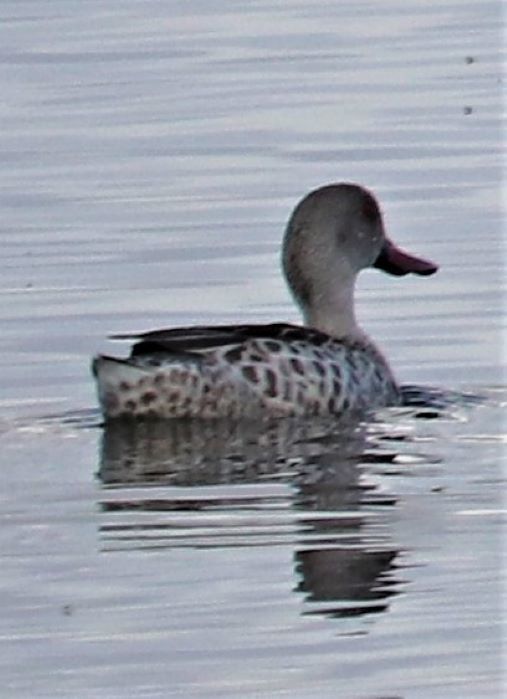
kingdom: Animalia
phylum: Chordata
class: Aves
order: Anseriformes
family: Anatidae
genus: Anas
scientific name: Anas capensis
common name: Cape teal
